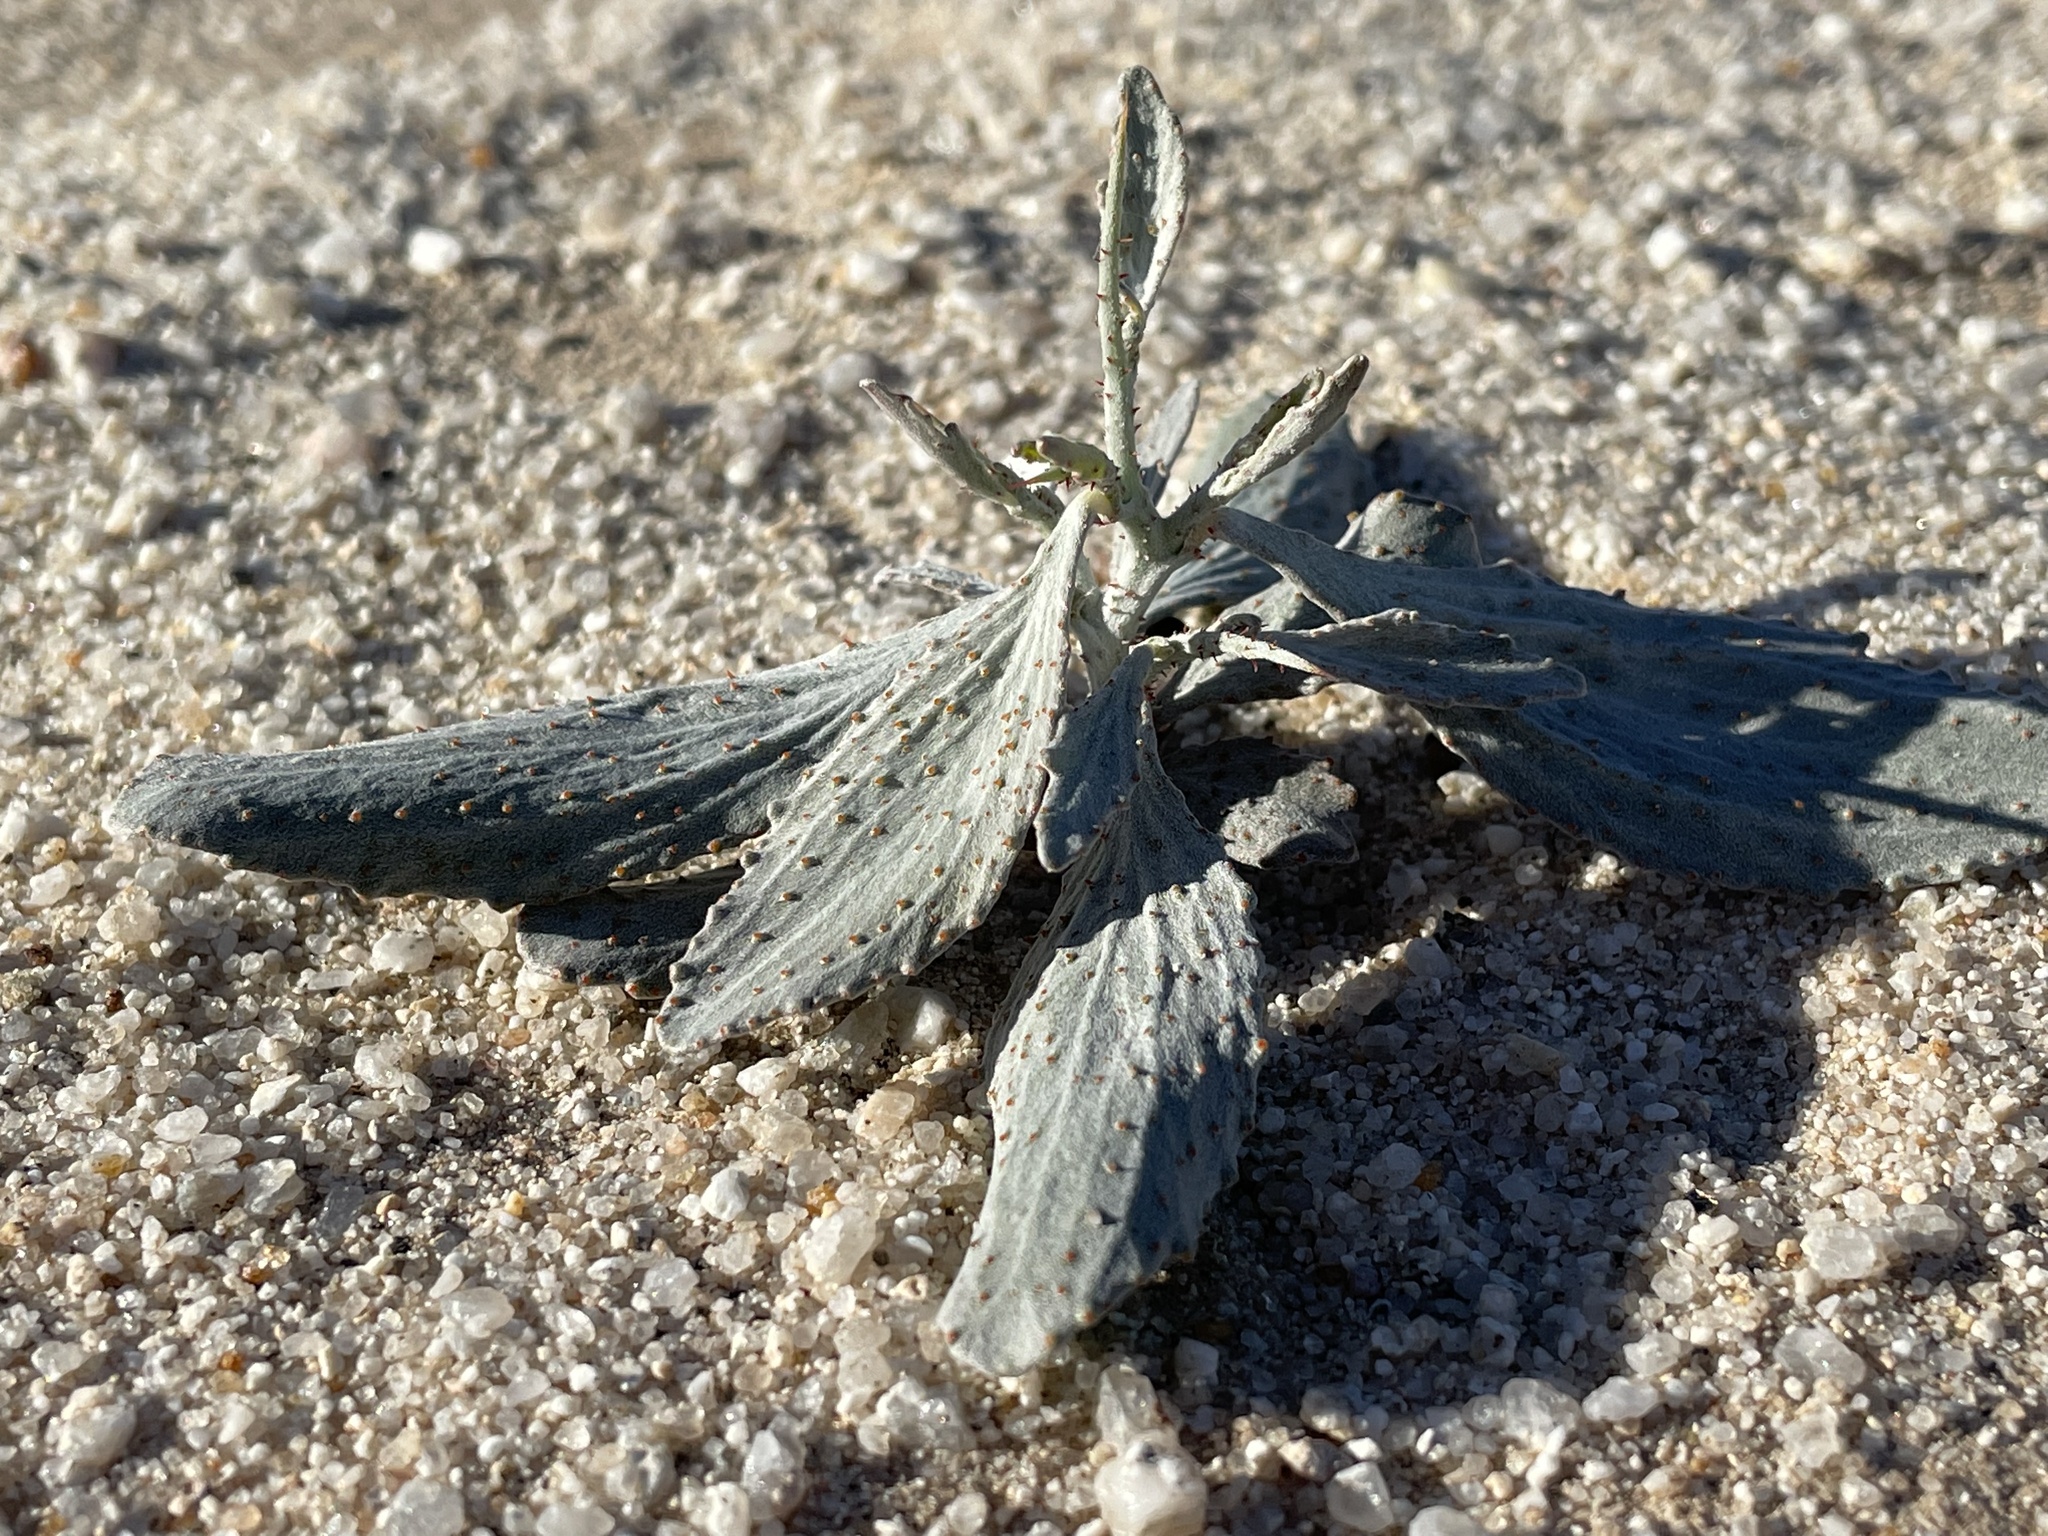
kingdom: Plantae
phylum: Tracheophyta
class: Magnoliopsida
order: Fabales
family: Fabaceae
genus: Psorothamnus
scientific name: Psorothamnus spinosus
